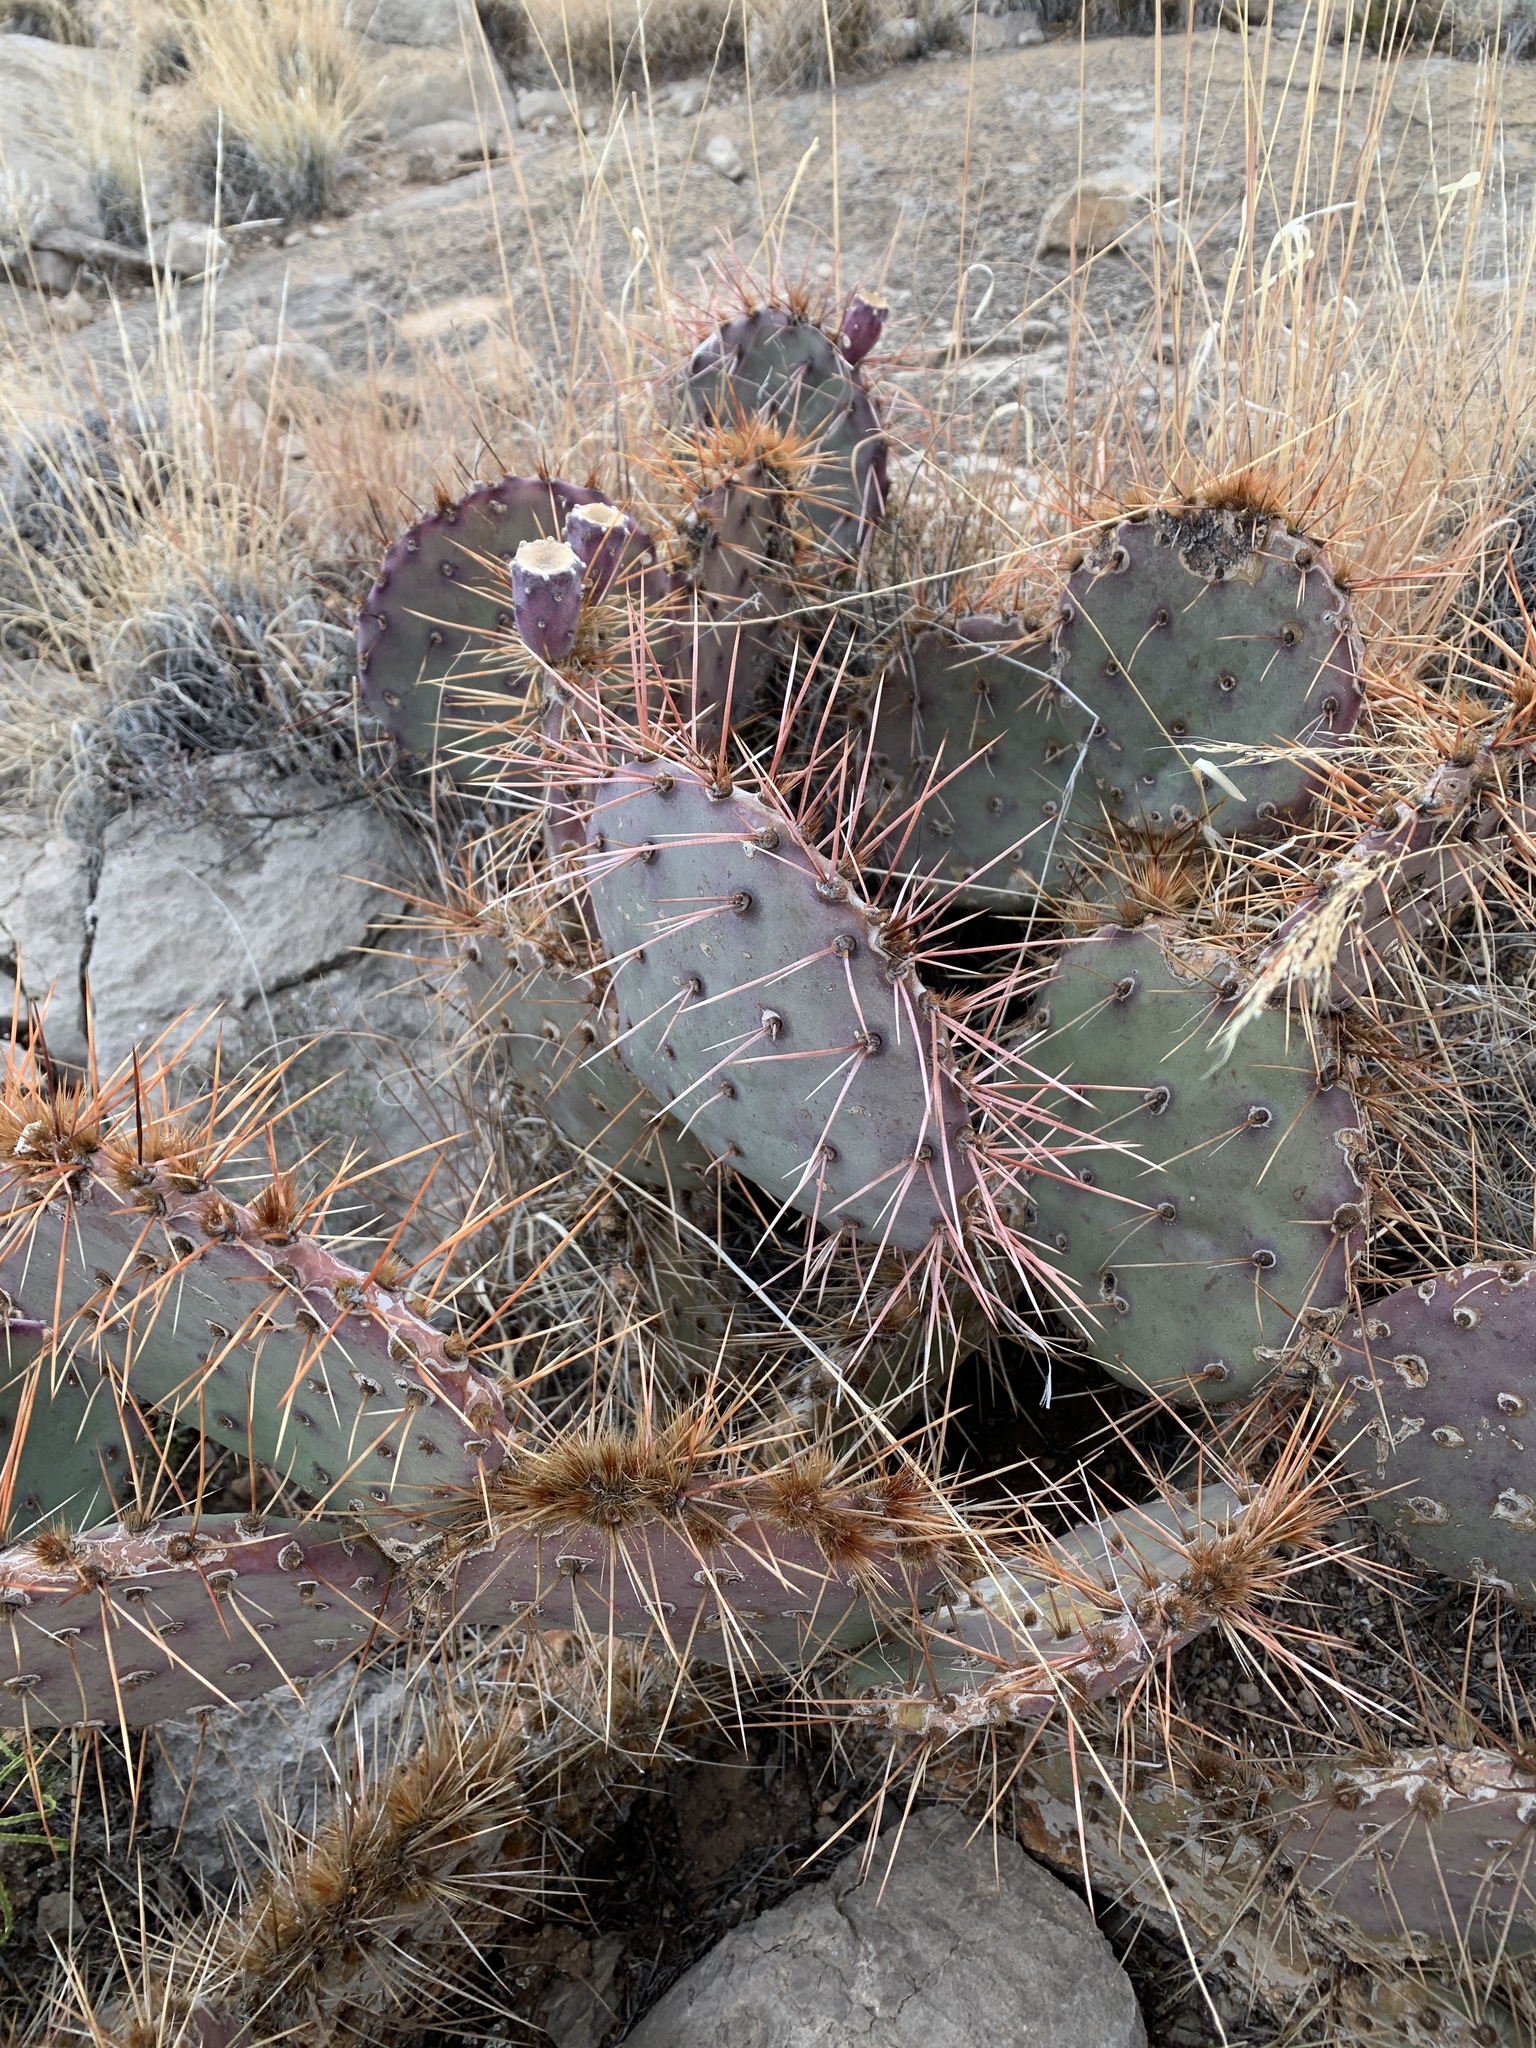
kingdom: Plantae
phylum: Tracheophyta
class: Magnoliopsida
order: Caryophyllales
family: Cactaceae
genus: Opuntia
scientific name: Opuntia macrocentra
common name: Purple prickly-pear
